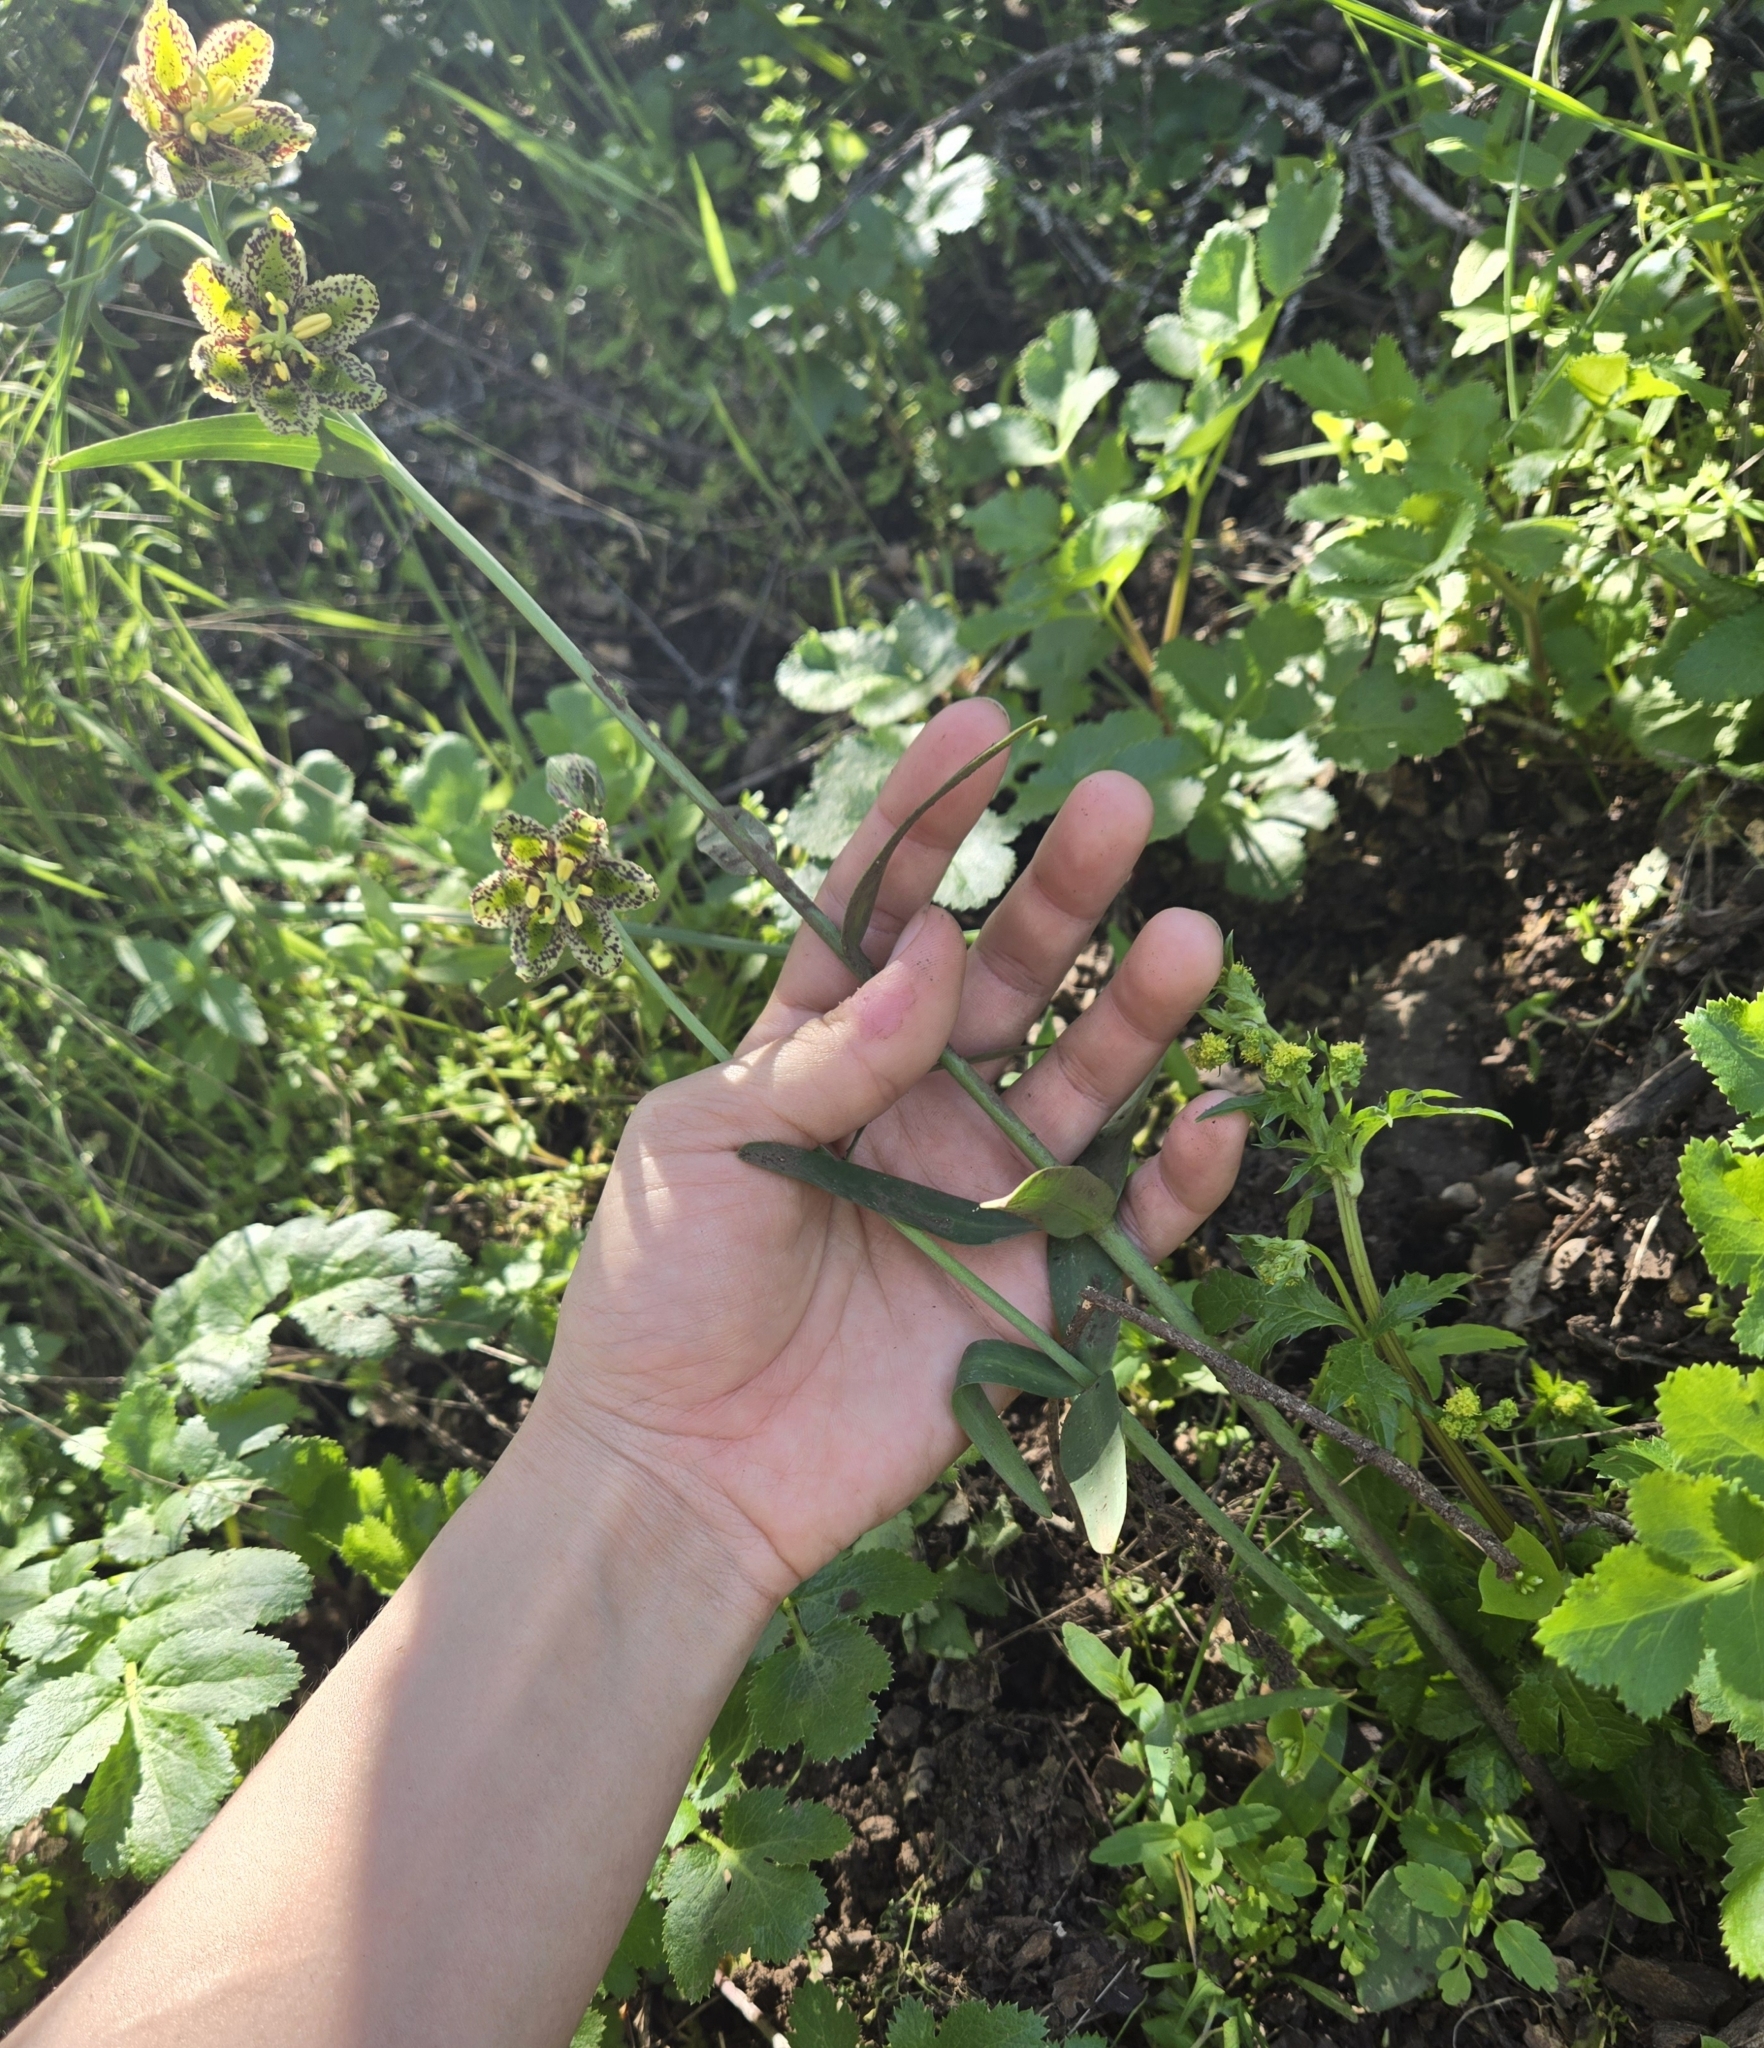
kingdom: Plantae
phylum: Tracheophyta
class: Liliopsida
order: Liliales
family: Liliaceae
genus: Fritillaria
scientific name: Fritillaria affinis
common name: Ojai fritillary
